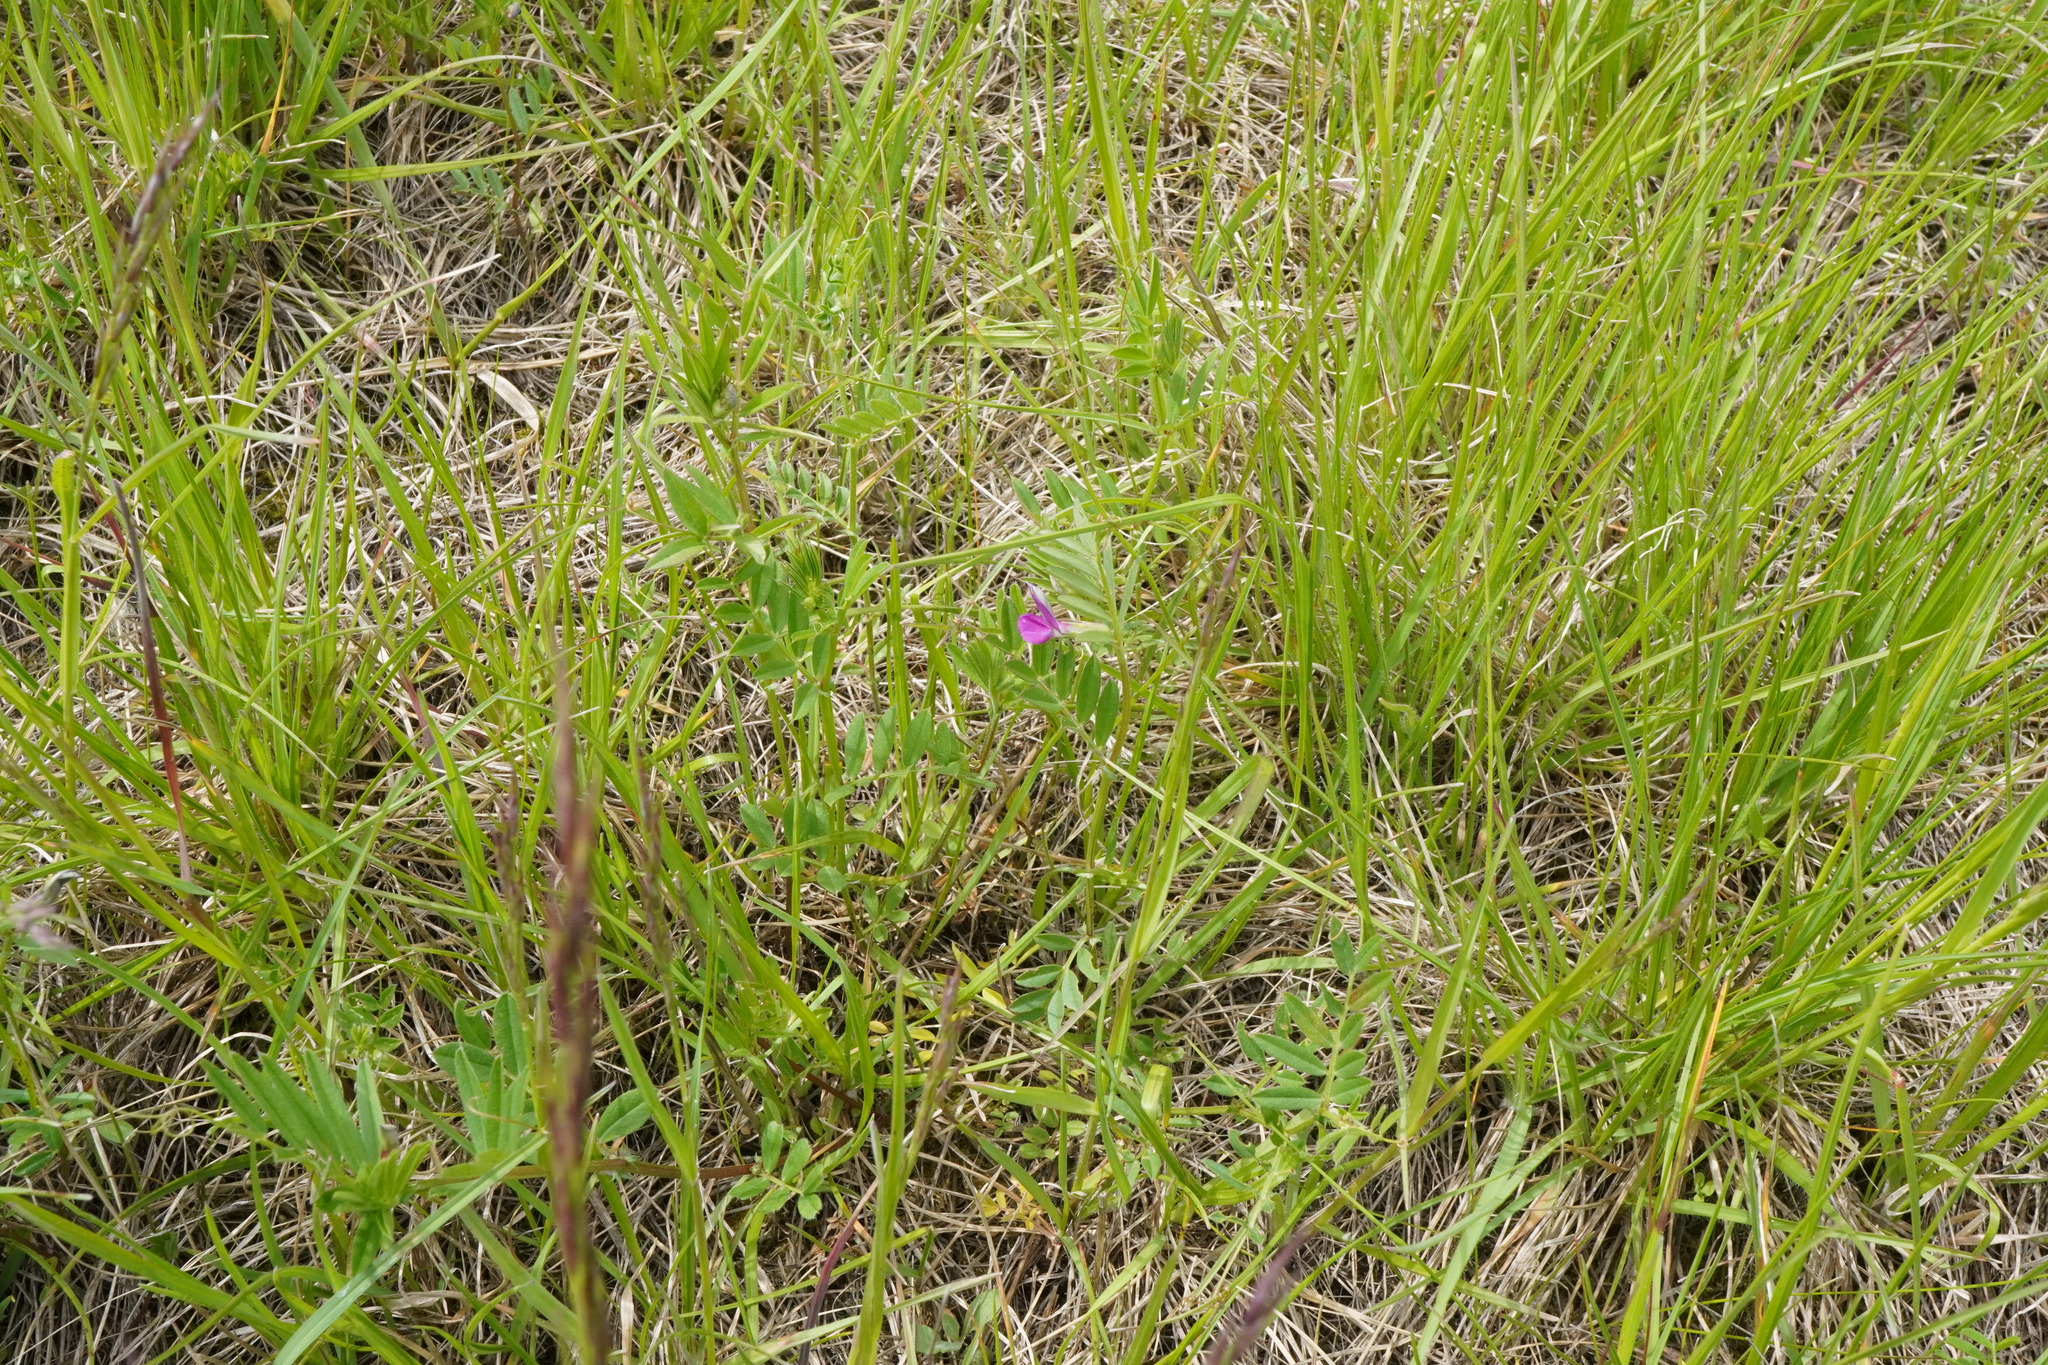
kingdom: Plantae
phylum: Tracheophyta
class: Magnoliopsida
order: Fabales
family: Fabaceae
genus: Vicia
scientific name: Vicia sativa
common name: Garden vetch
